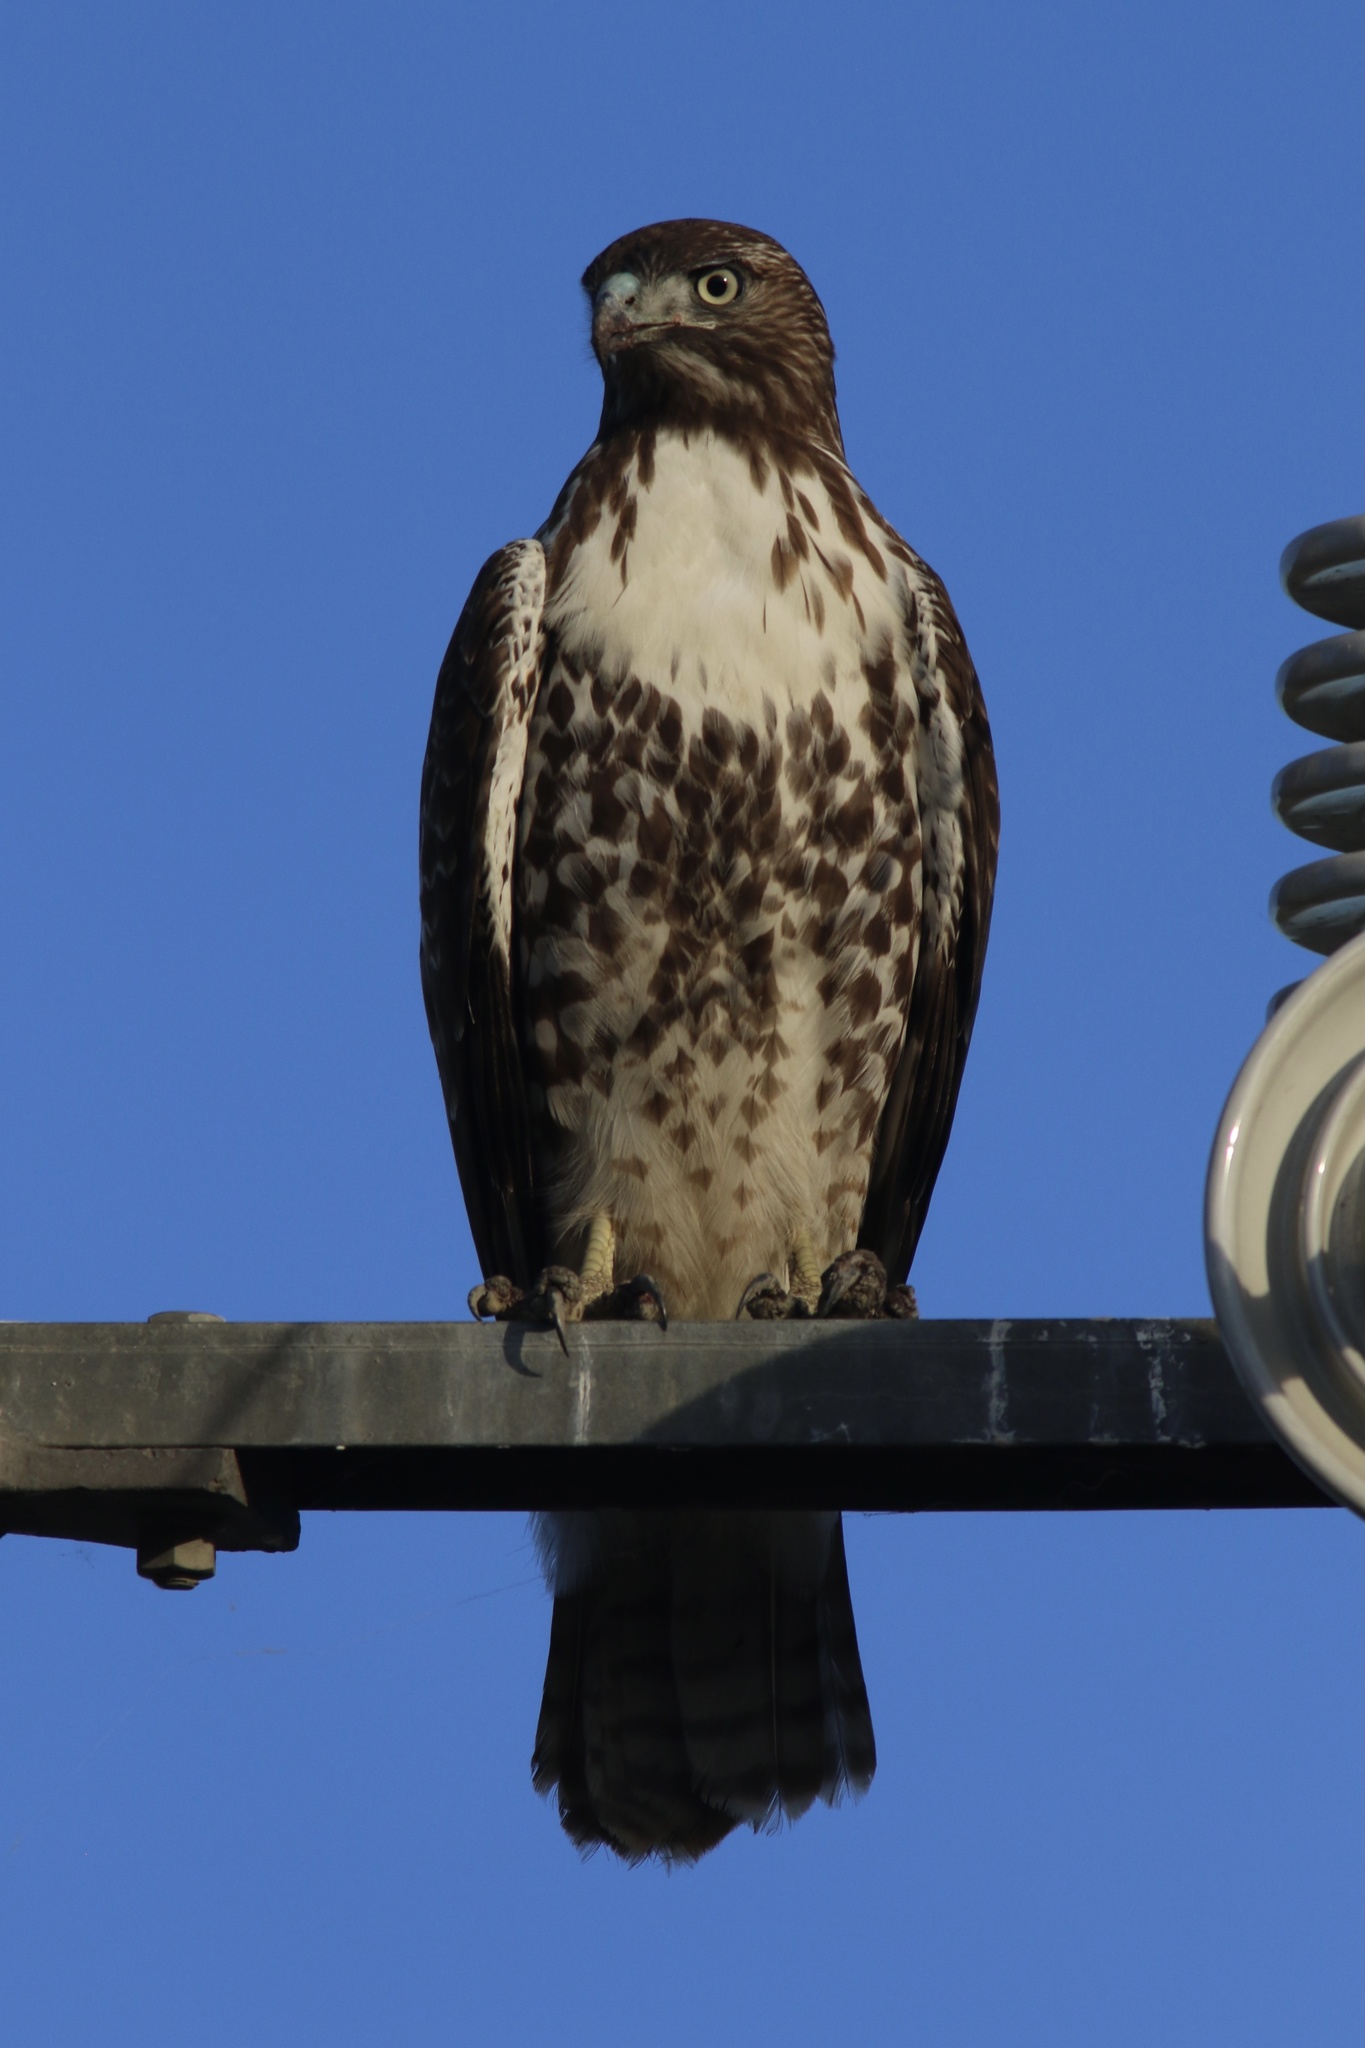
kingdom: Animalia
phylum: Chordata
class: Aves
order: Accipitriformes
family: Accipitridae
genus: Buteo
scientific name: Buteo jamaicensis
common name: Red-tailed hawk
